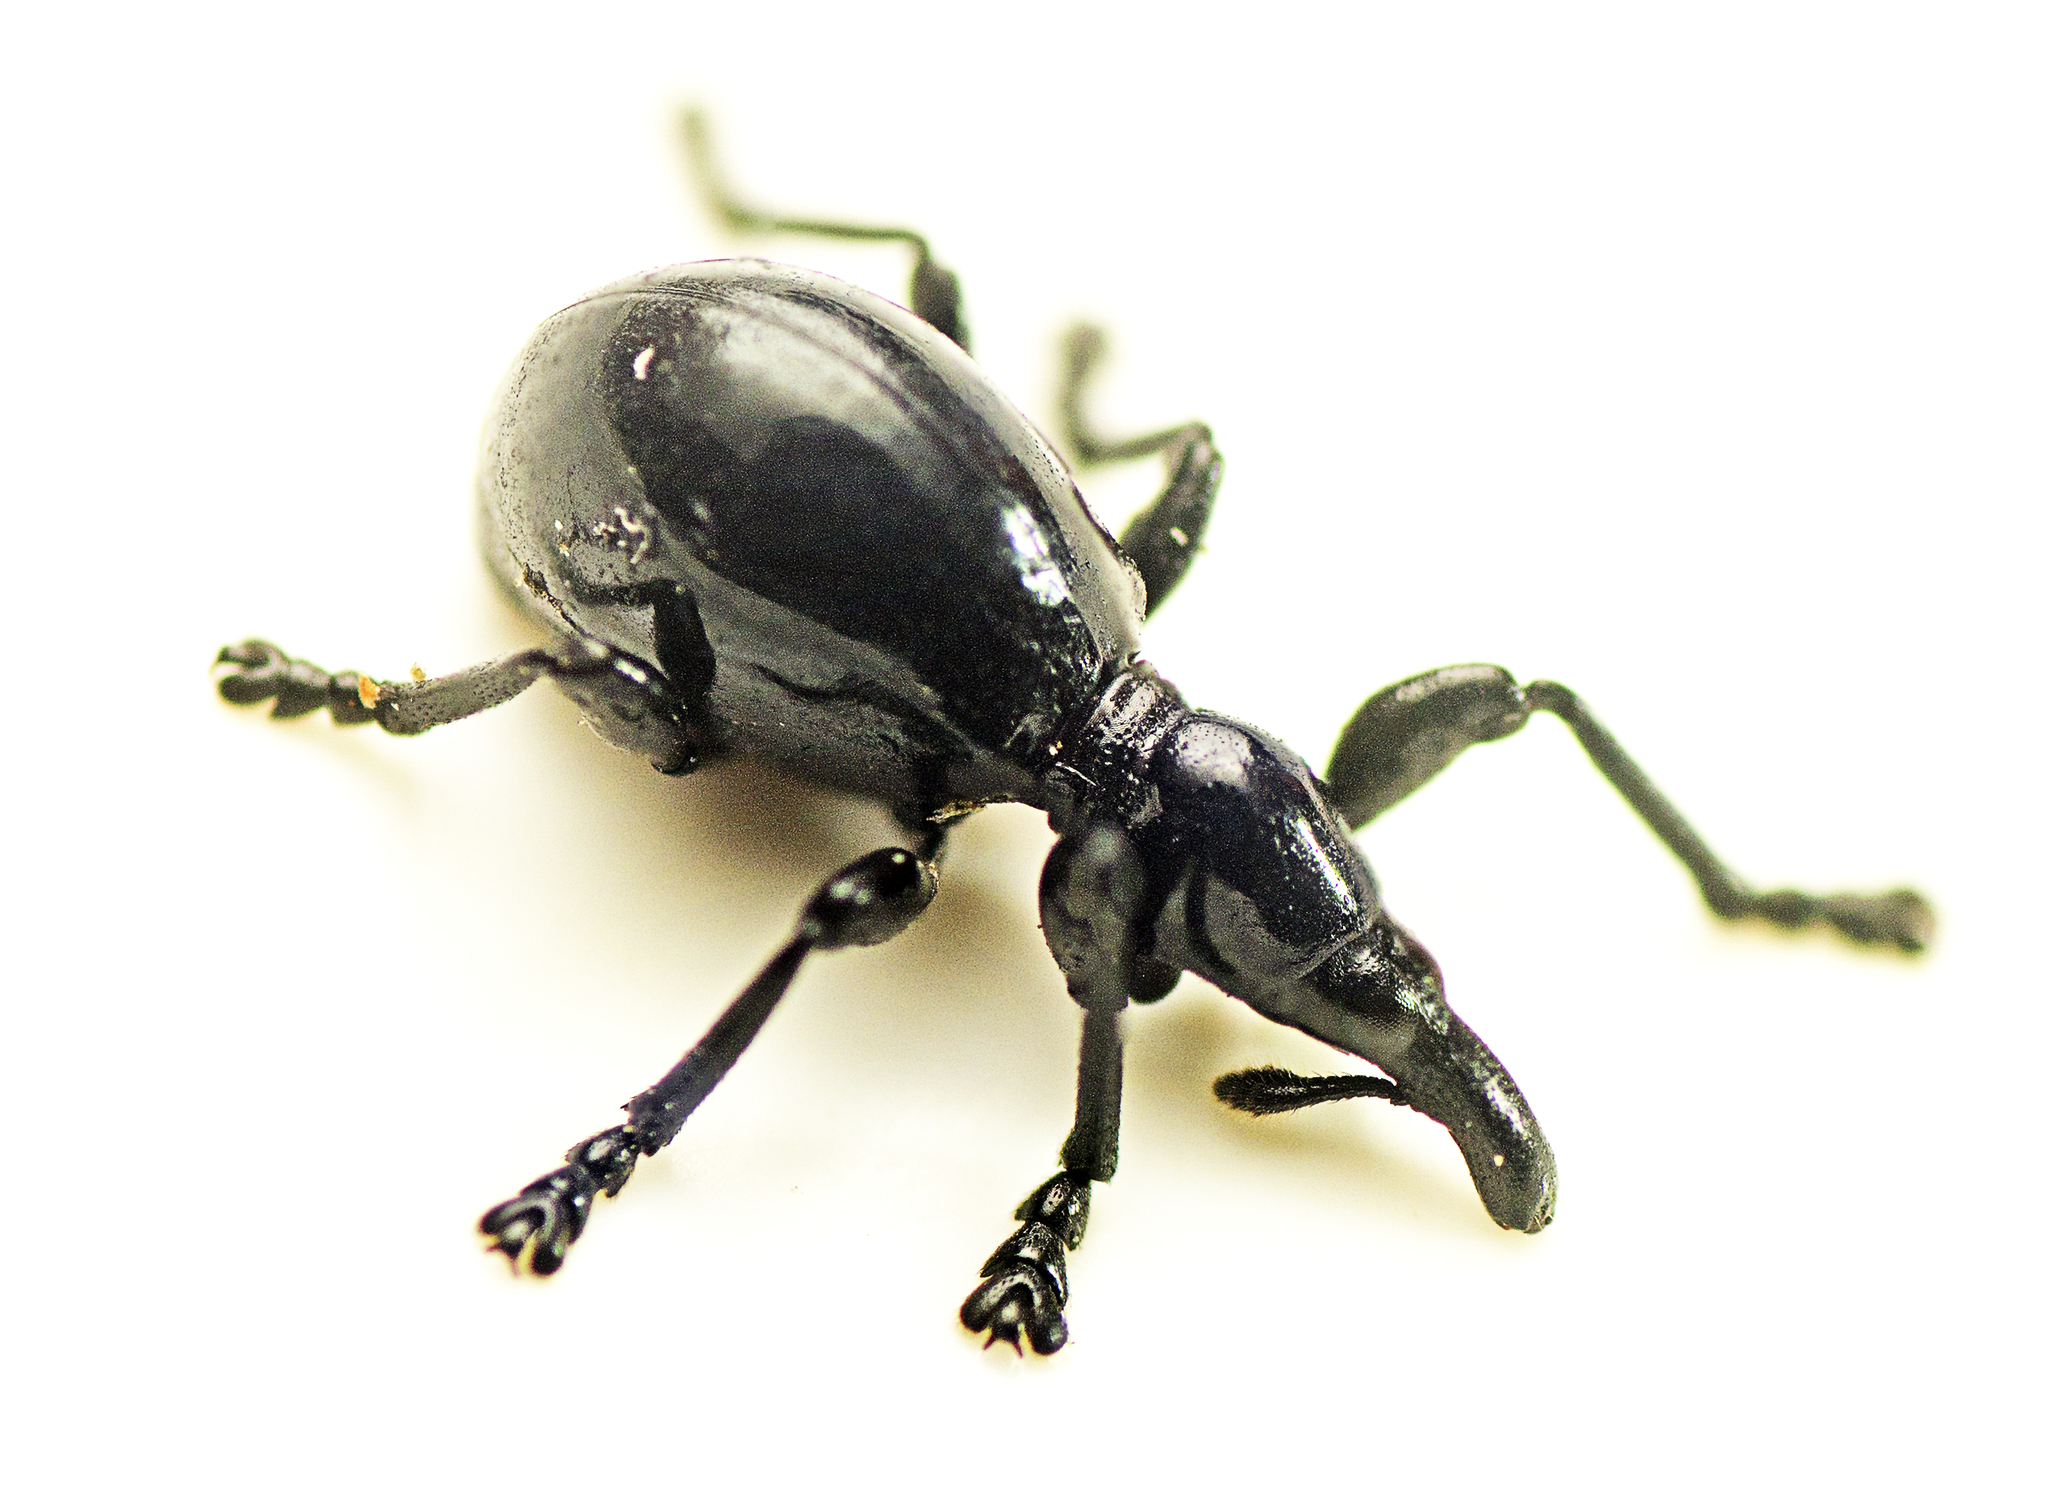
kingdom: Animalia
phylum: Arthropoda
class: Insecta
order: Coleoptera
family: Brentidae
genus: Rhynolaccus
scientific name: Rhynolaccus formicarius
